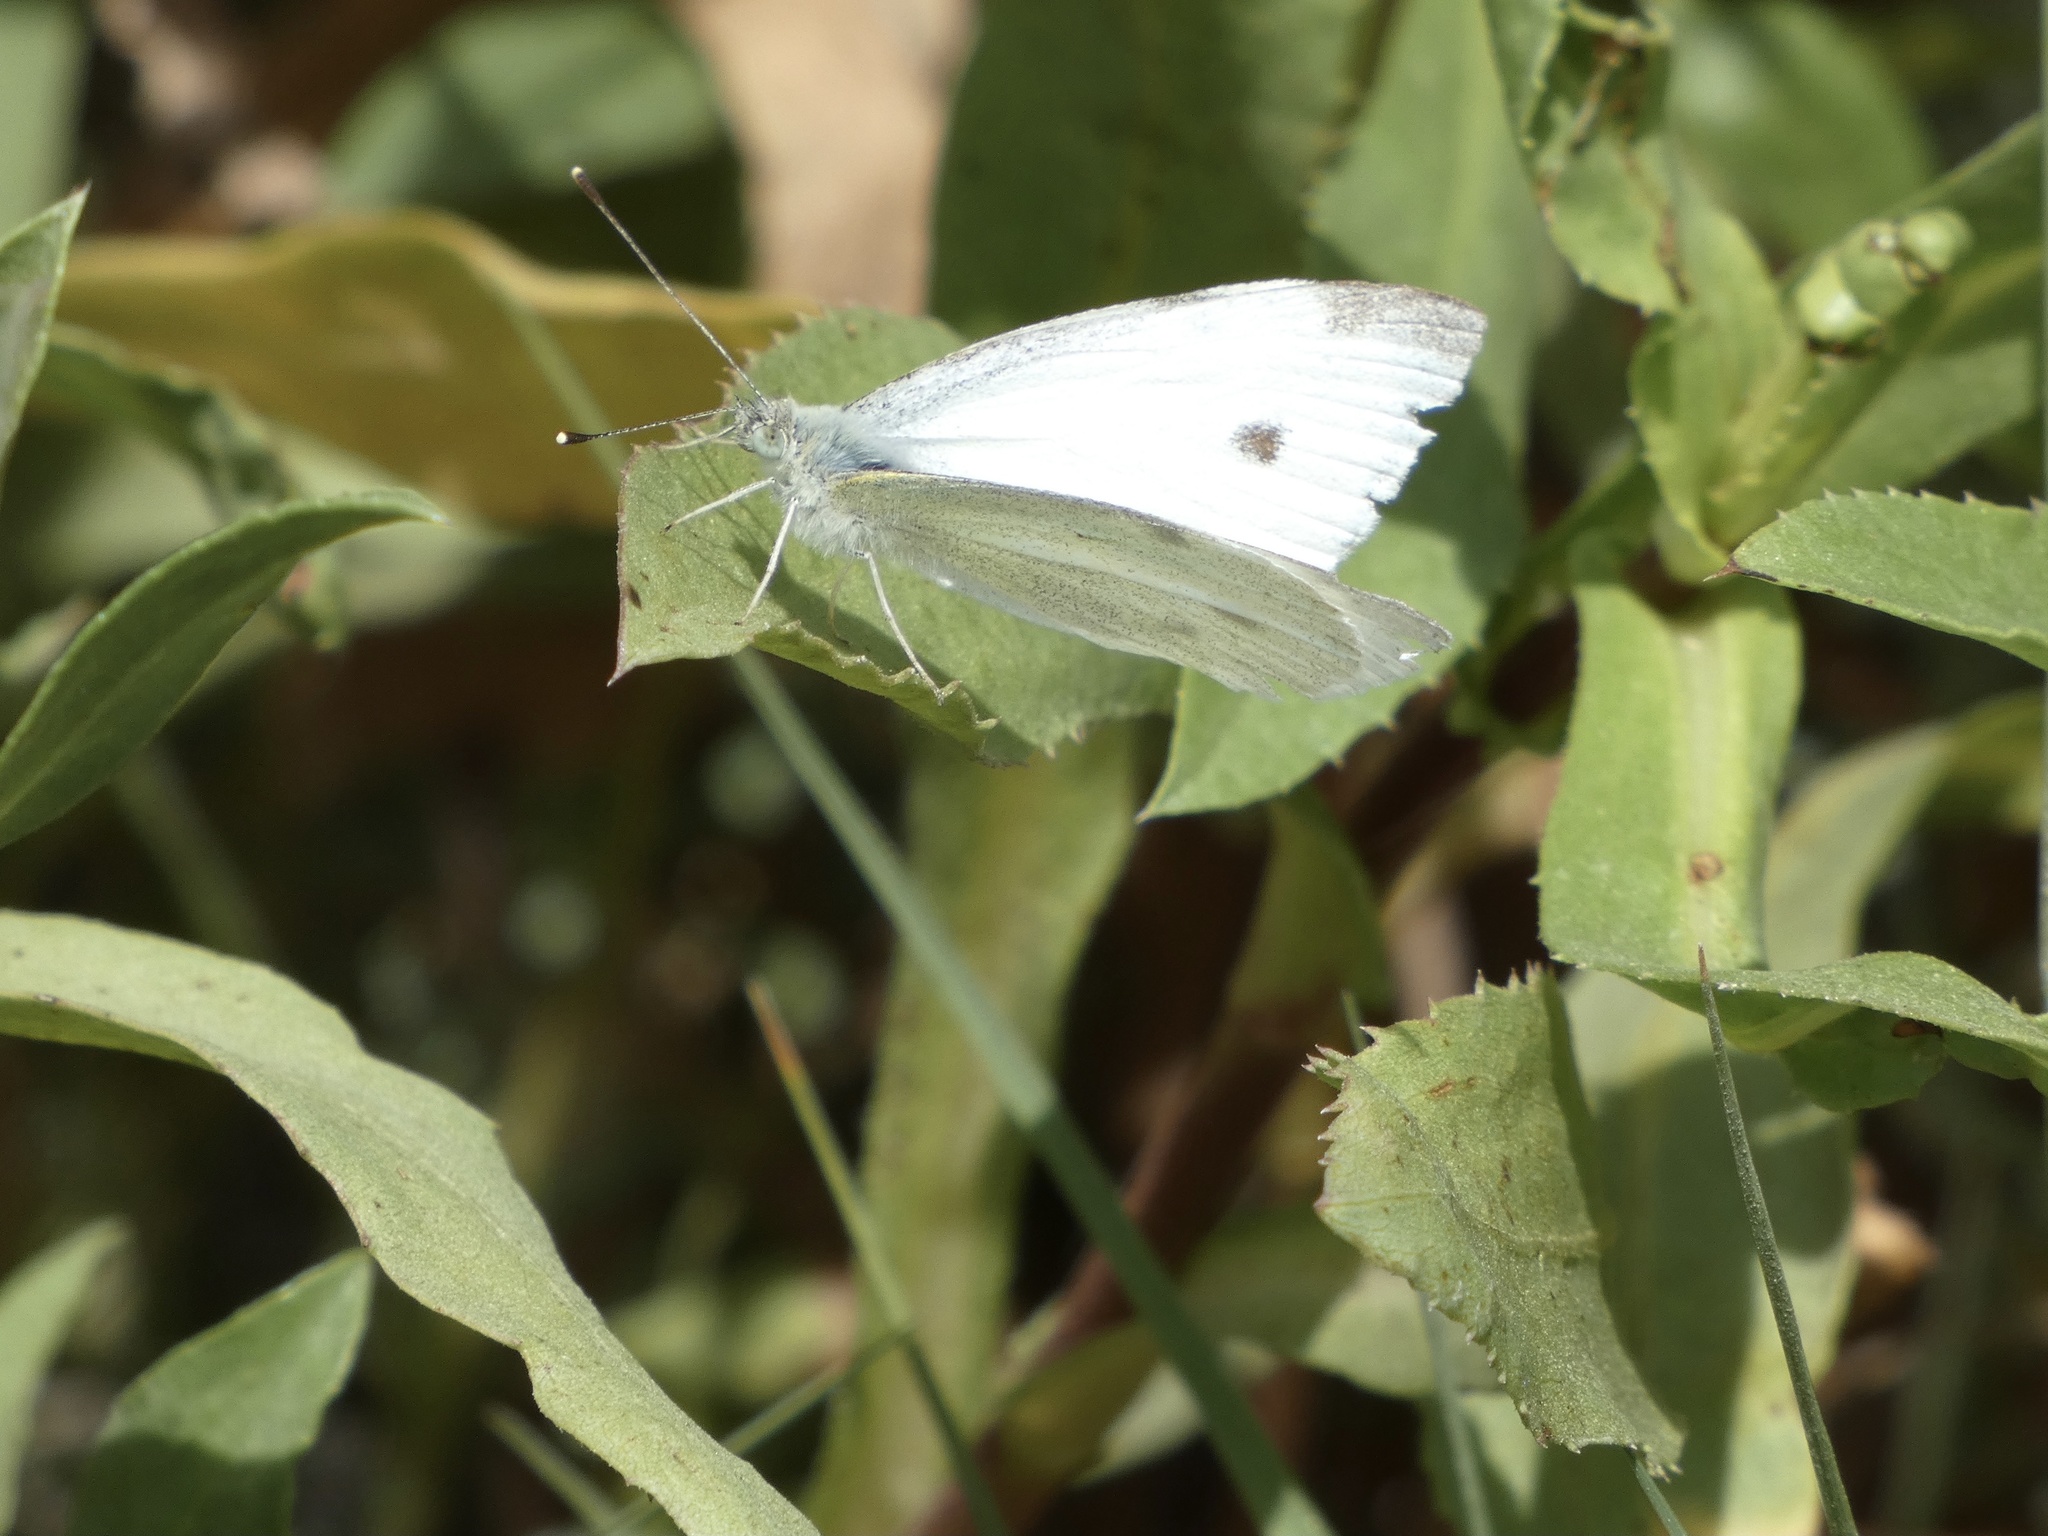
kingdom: Animalia
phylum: Arthropoda
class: Insecta
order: Lepidoptera
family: Pieridae
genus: Pieris
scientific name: Pieris rapae
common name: Small white
